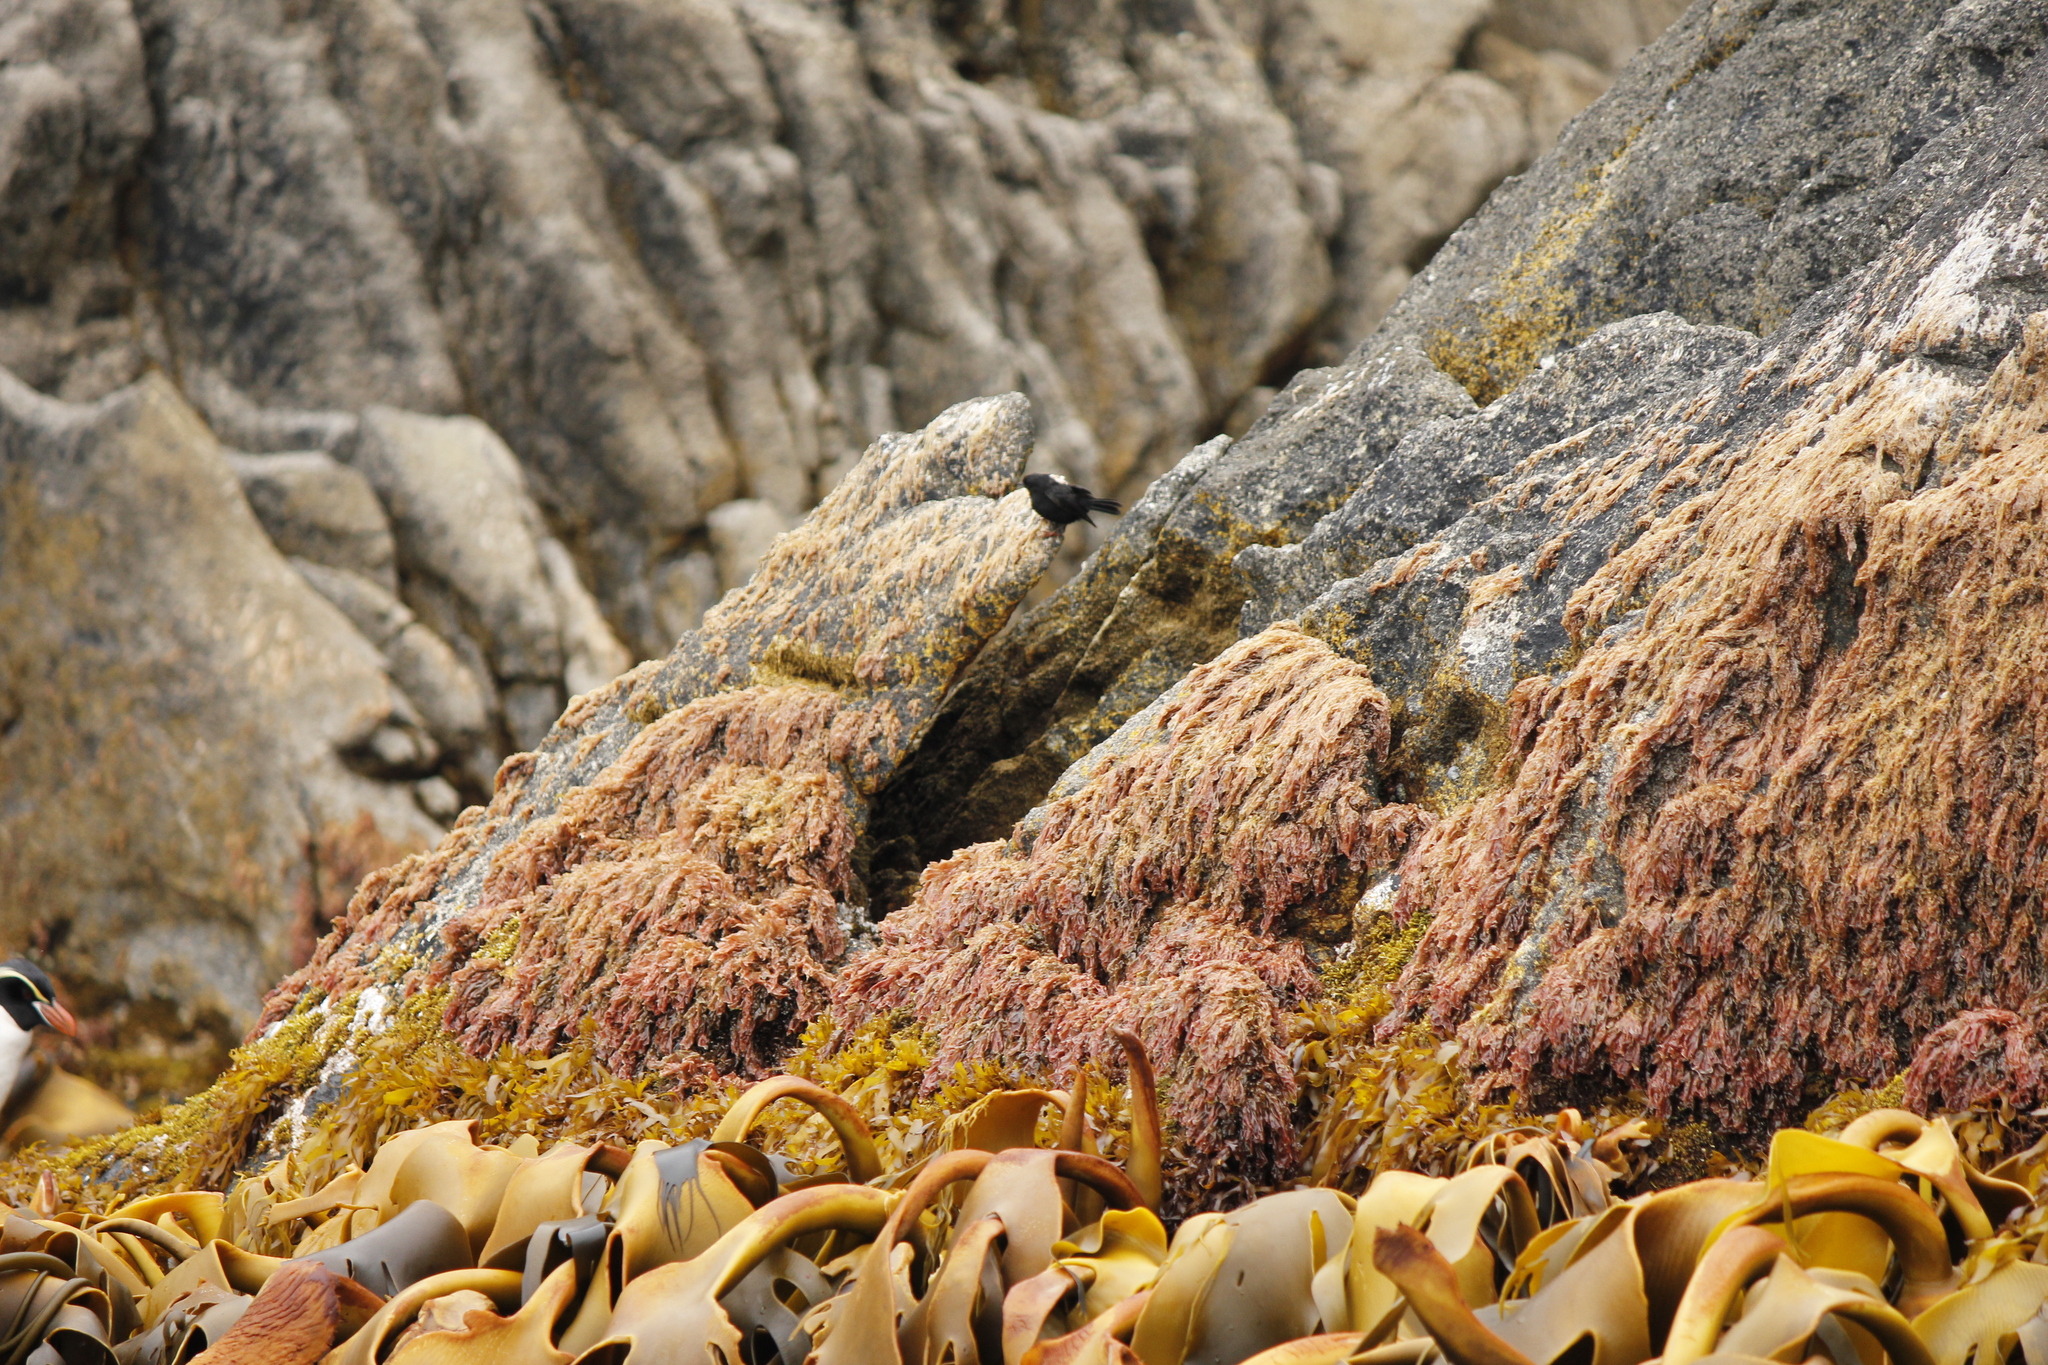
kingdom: Animalia
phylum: Chordata
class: Aves
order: Passeriformes
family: Petroicidae
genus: Petroica
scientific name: Petroica macrocephala
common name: Tomtit
